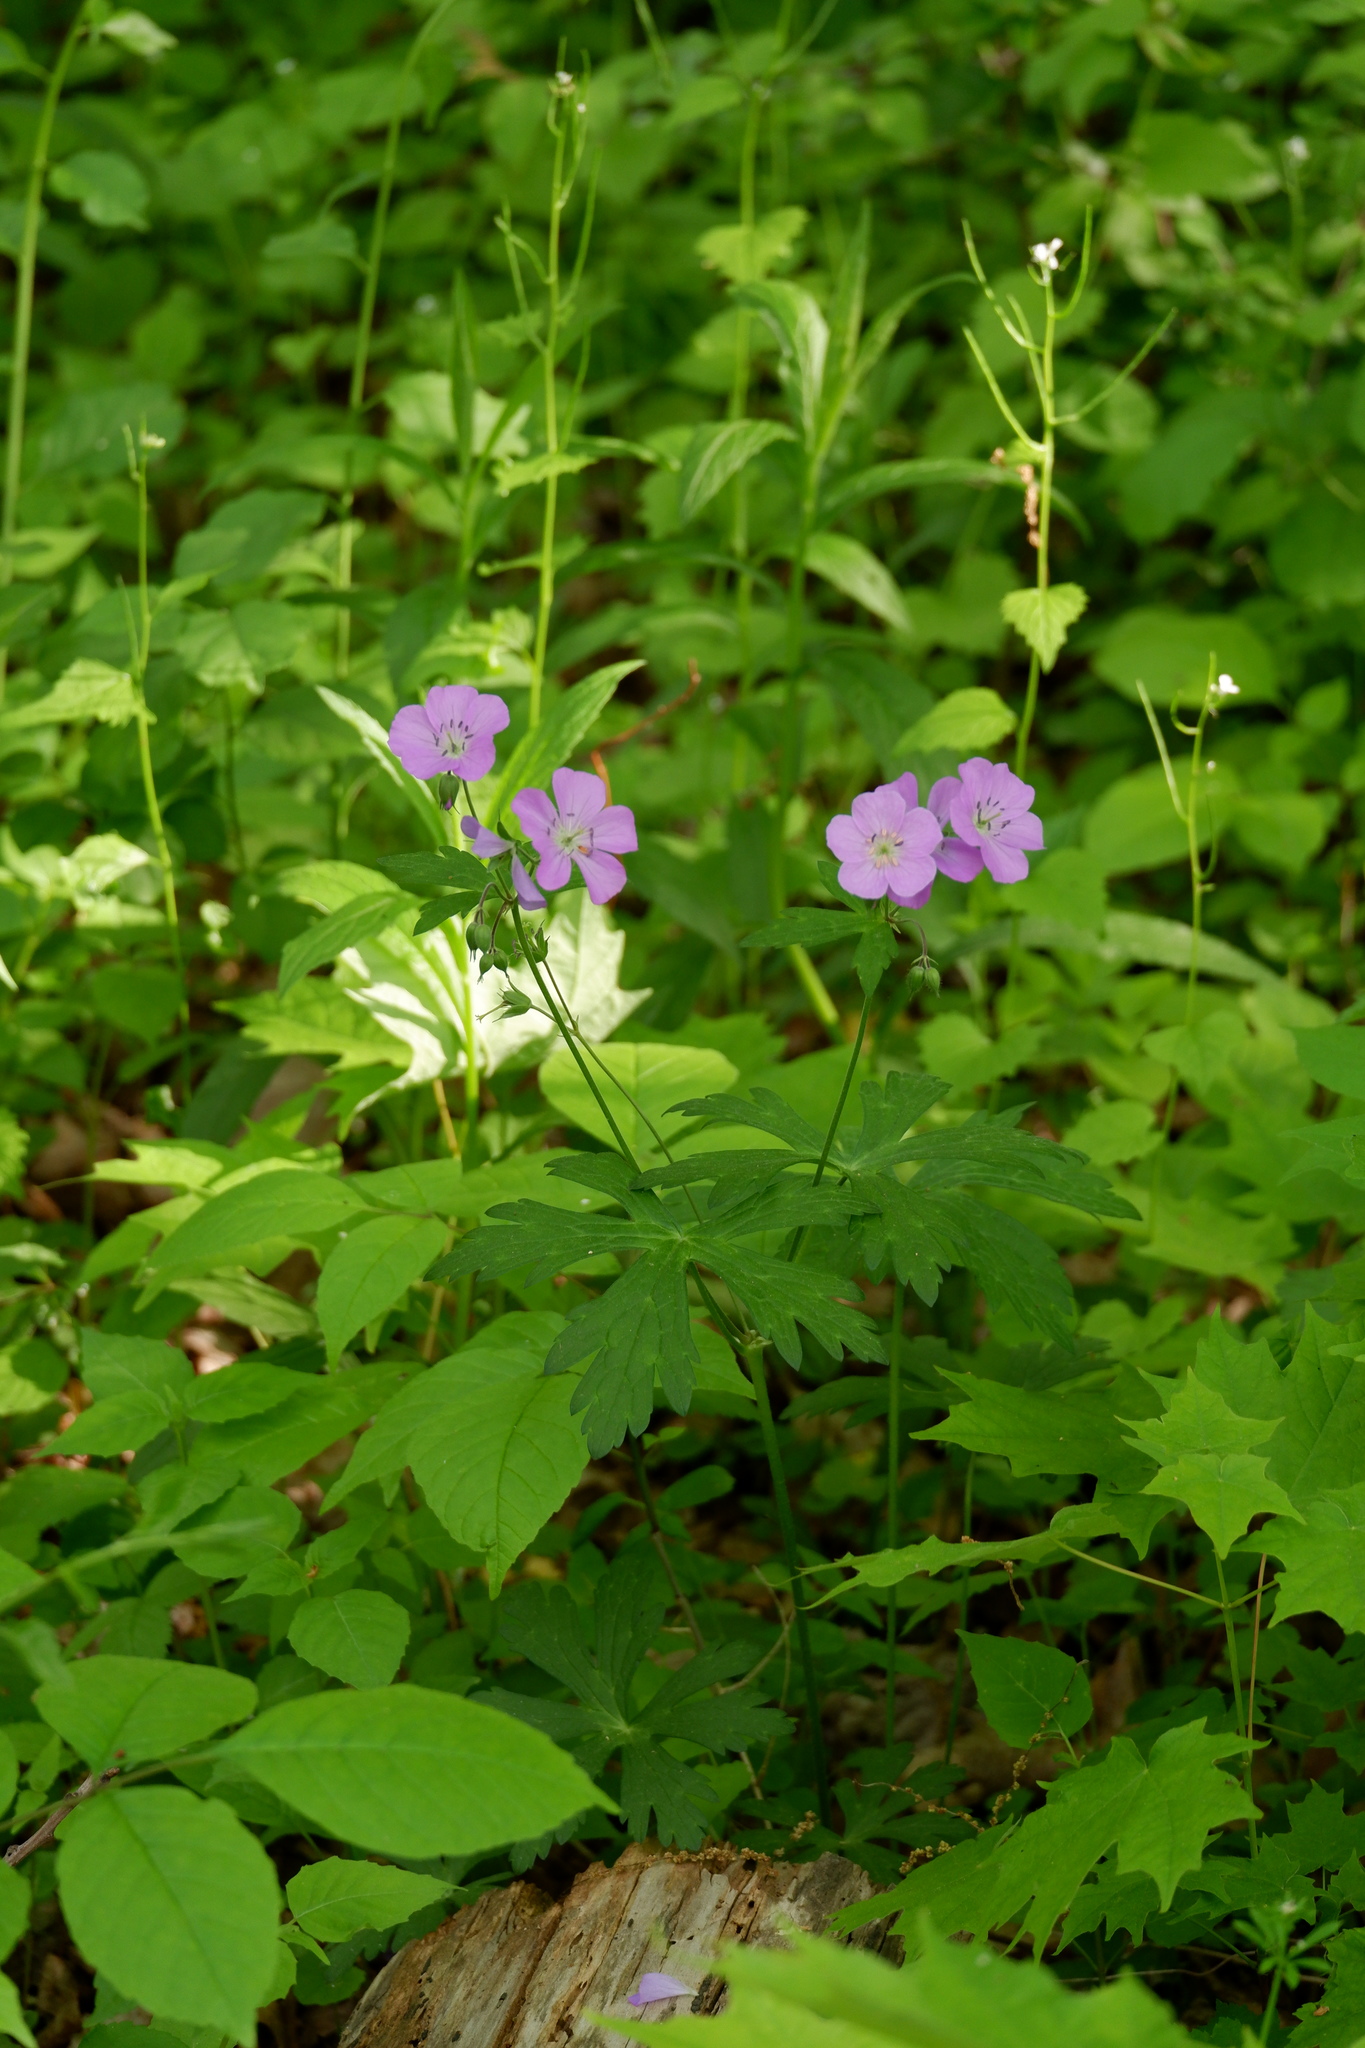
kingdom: Plantae
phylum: Tracheophyta
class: Magnoliopsida
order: Geraniales
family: Geraniaceae
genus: Geranium
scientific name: Geranium maculatum
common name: Spotted geranium
